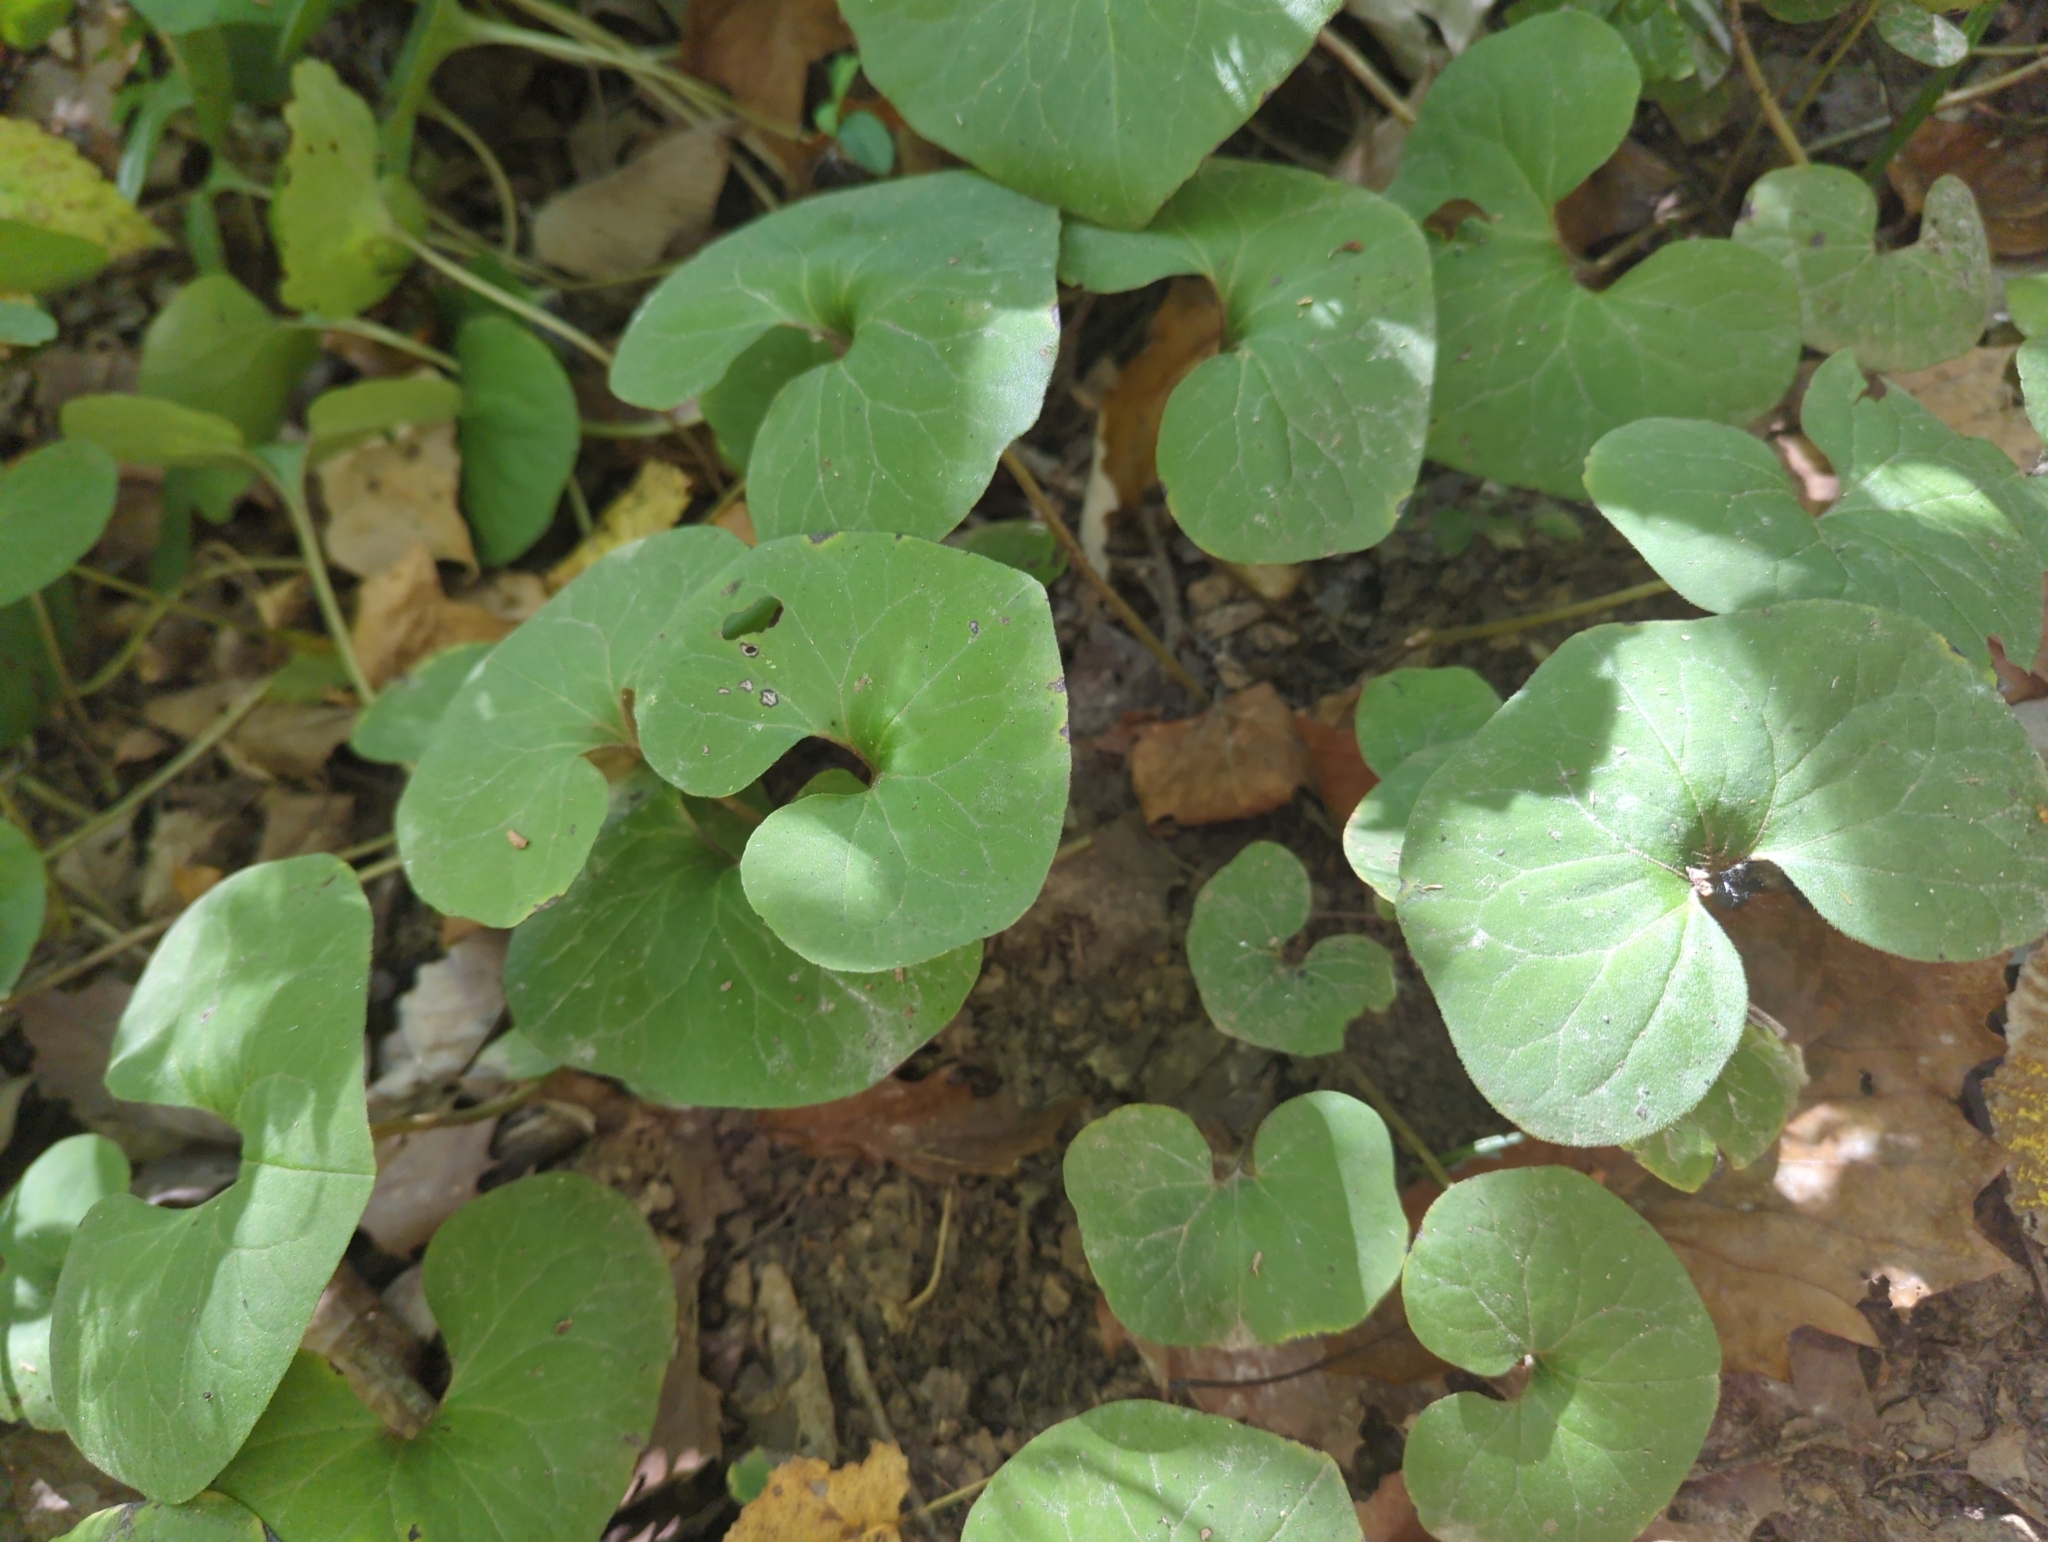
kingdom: Plantae
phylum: Tracheophyta
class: Magnoliopsida
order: Piperales
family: Aristolochiaceae
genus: Asarum
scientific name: Asarum canadense
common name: Wild ginger
